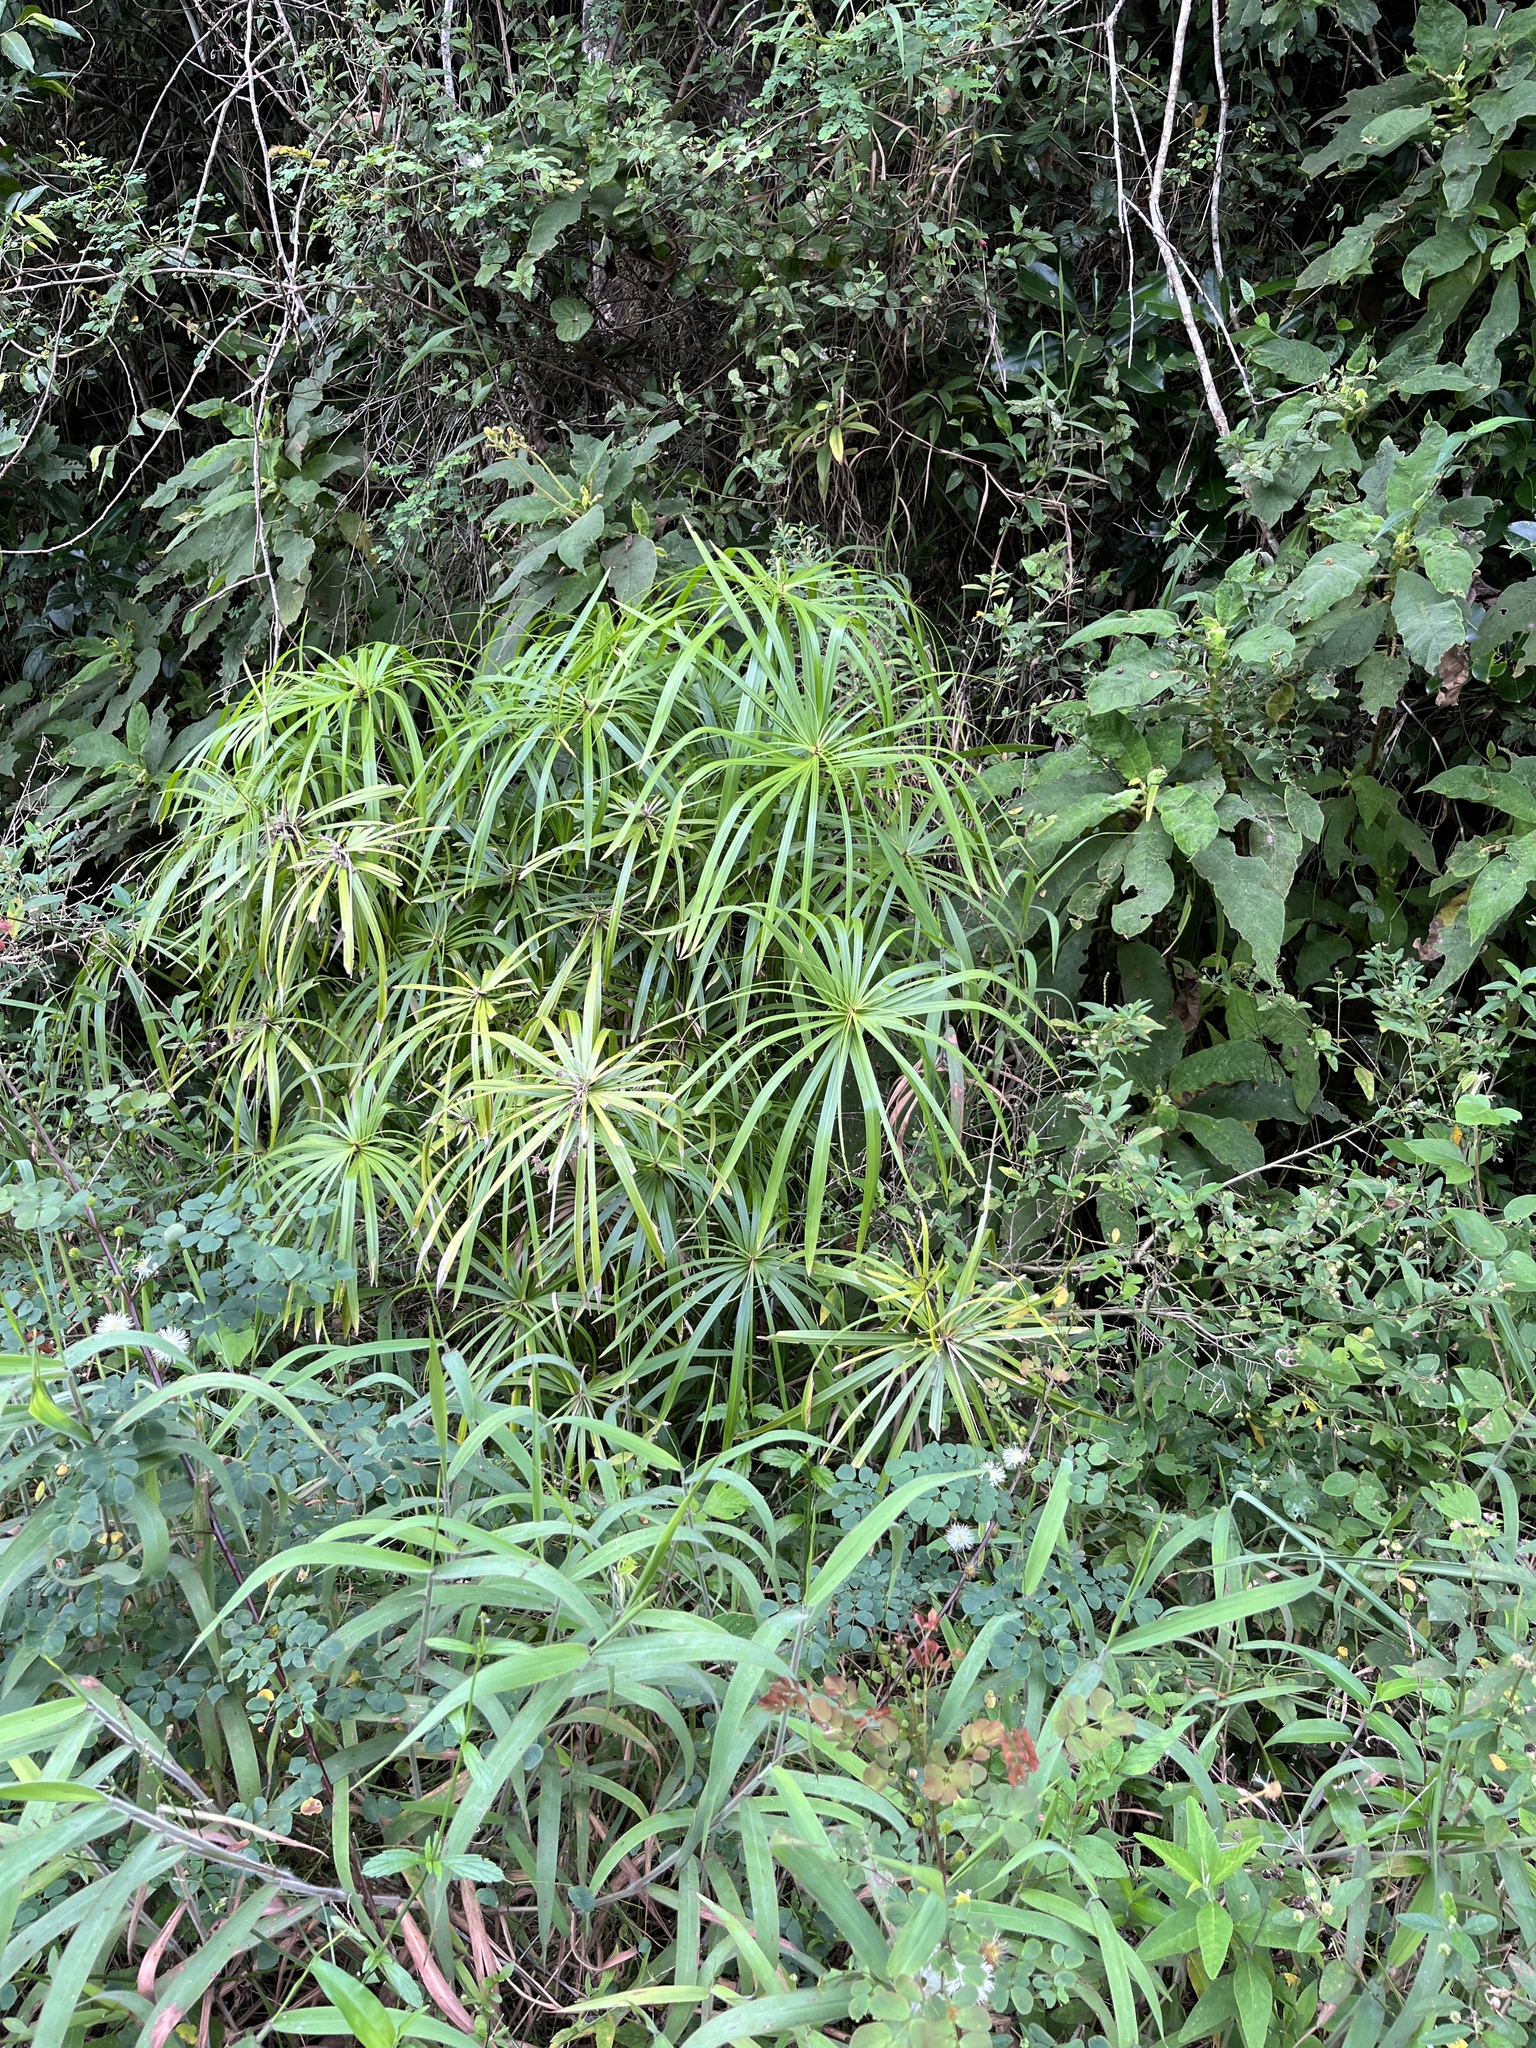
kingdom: Plantae
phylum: Tracheophyta
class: Liliopsida
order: Poales
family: Cyperaceae
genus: Cyperus
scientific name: Cyperus alternifolius
